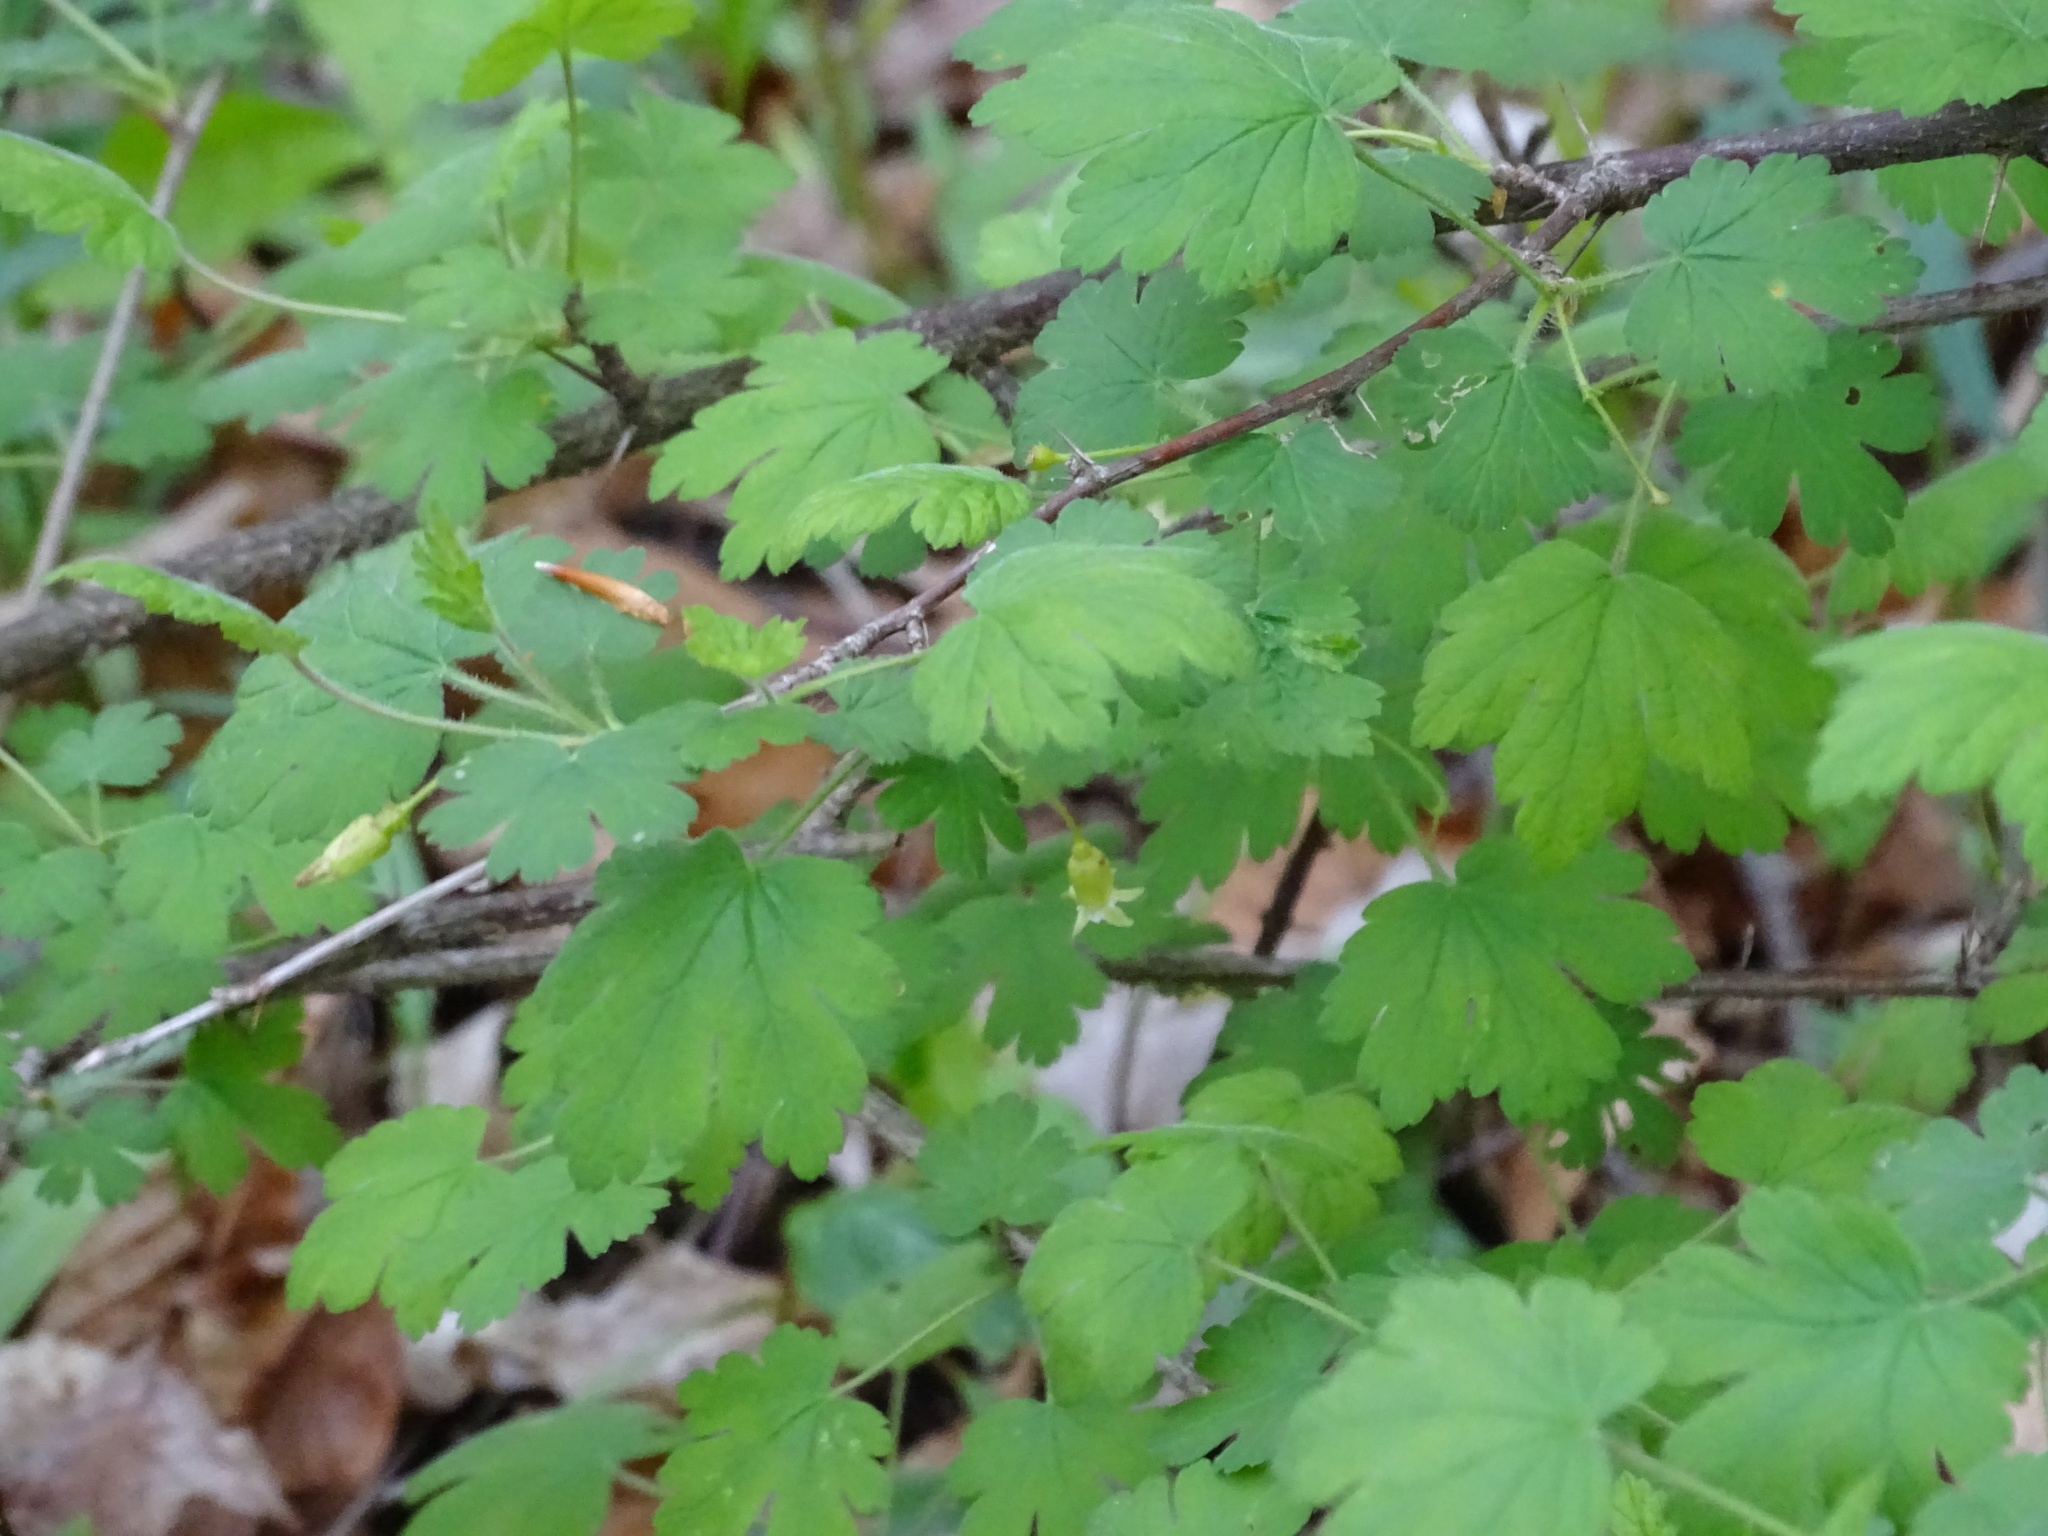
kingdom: Plantae
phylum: Tracheophyta
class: Magnoliopsida
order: Saxifragales
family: Grossulariaceae
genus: Ribes
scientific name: Ribes cynosbati
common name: American gooseberry
